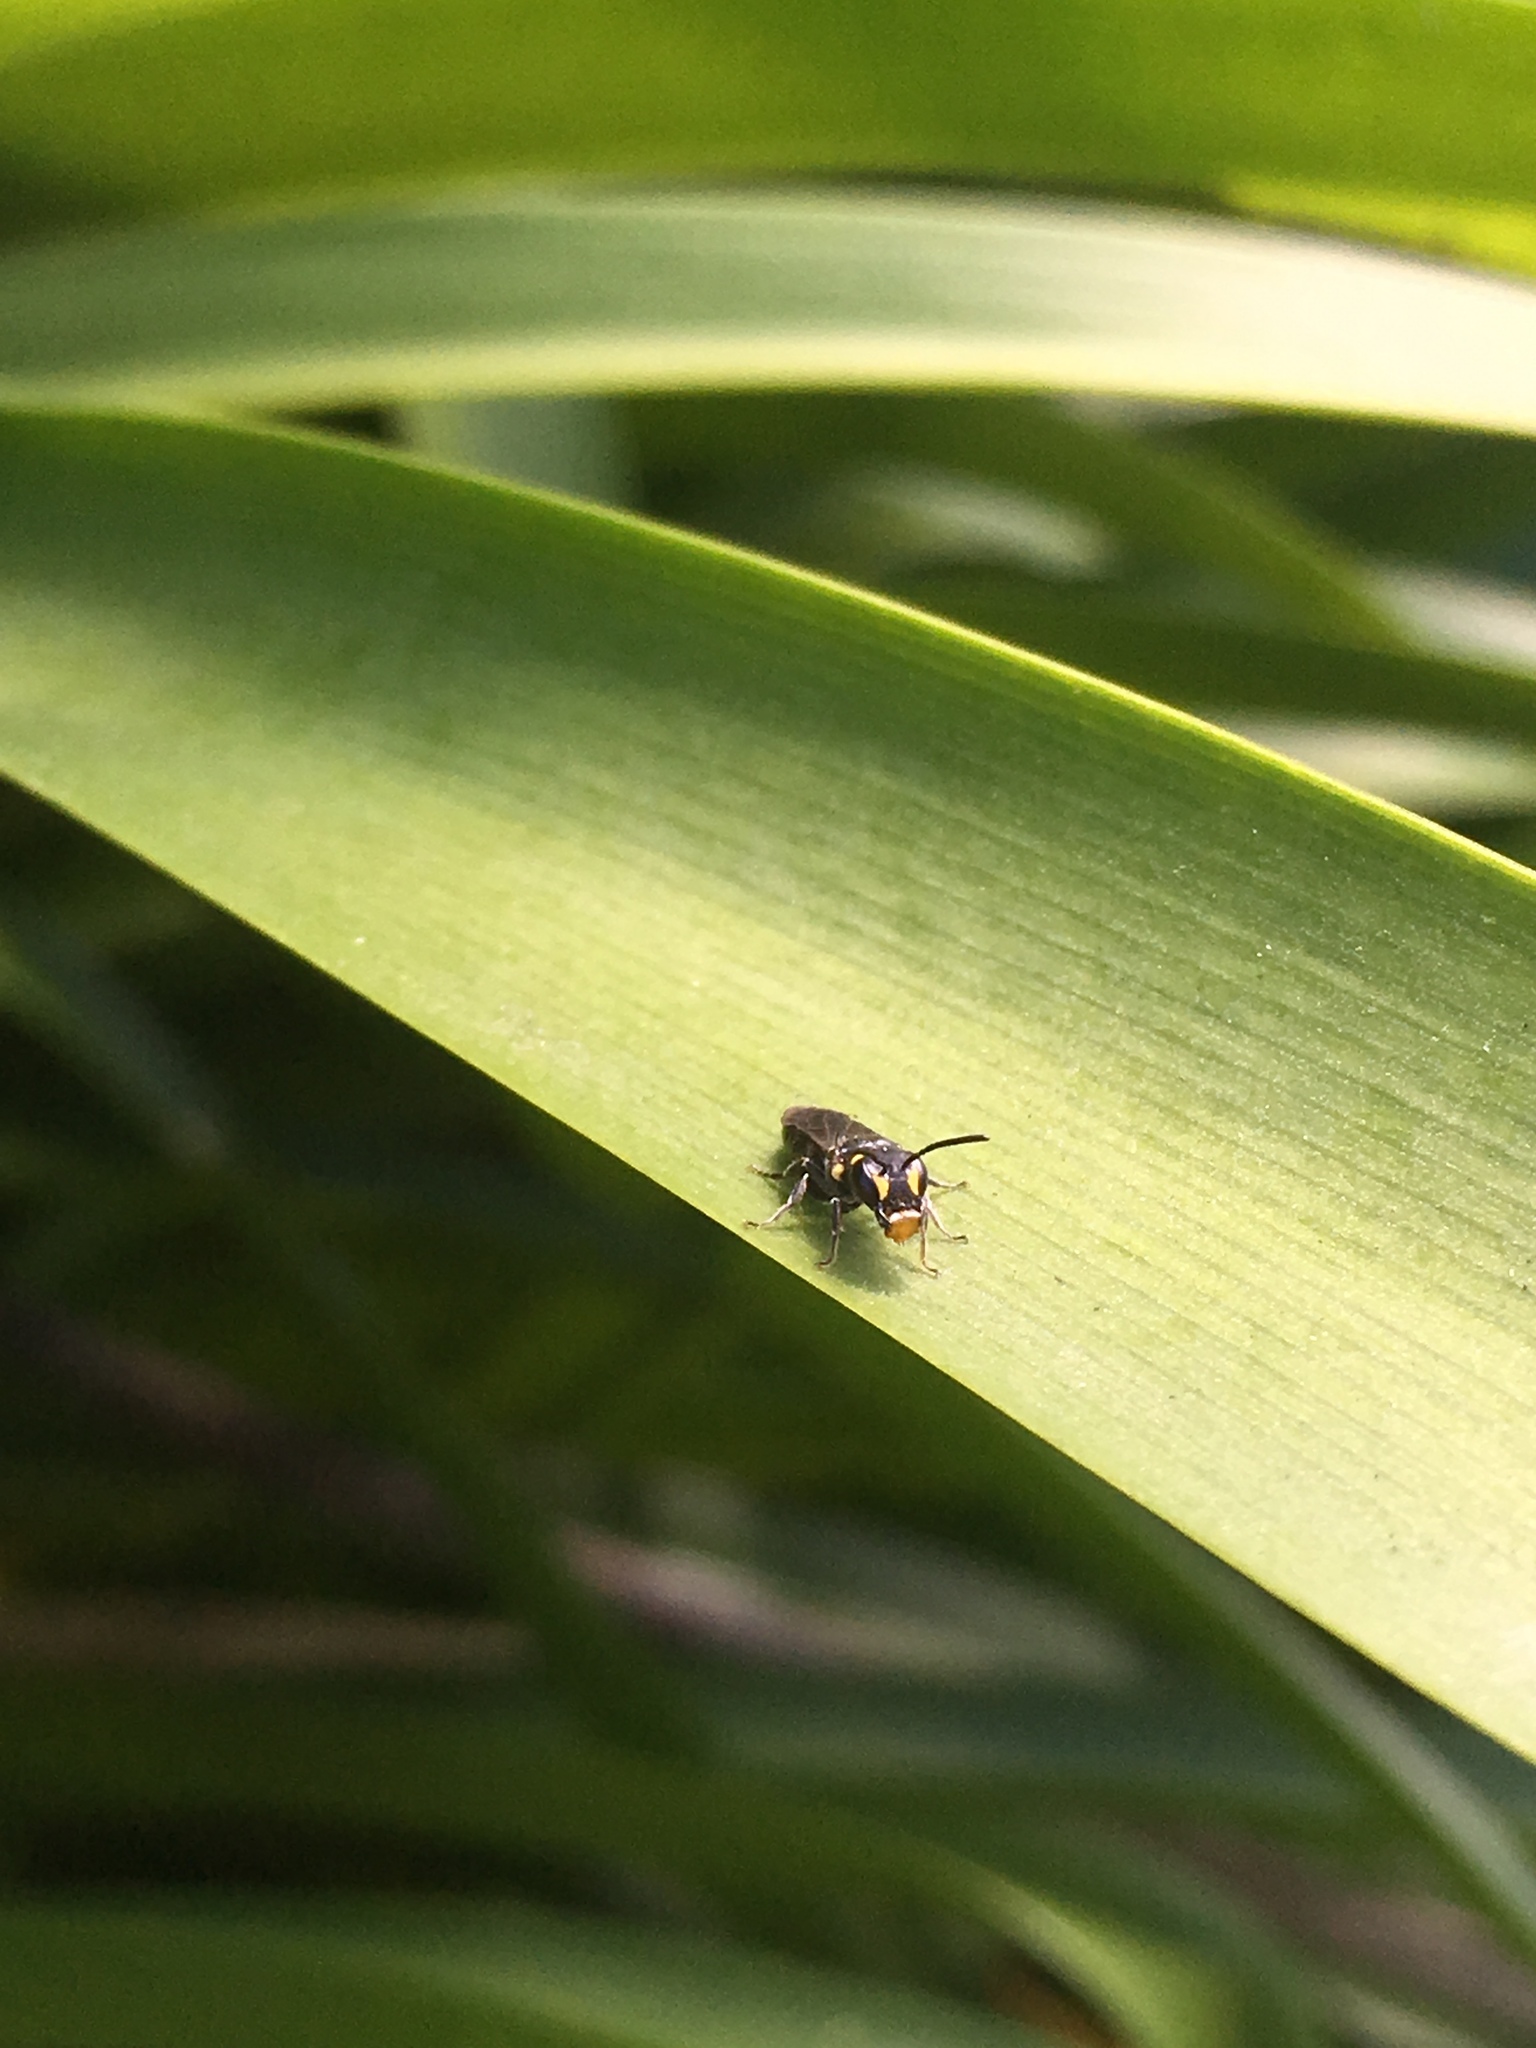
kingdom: Animalia
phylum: Arthropoda
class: Insecta
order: Hymenoptera
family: Colletidae
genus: Hylaeus
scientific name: Hylaeus relegatus
